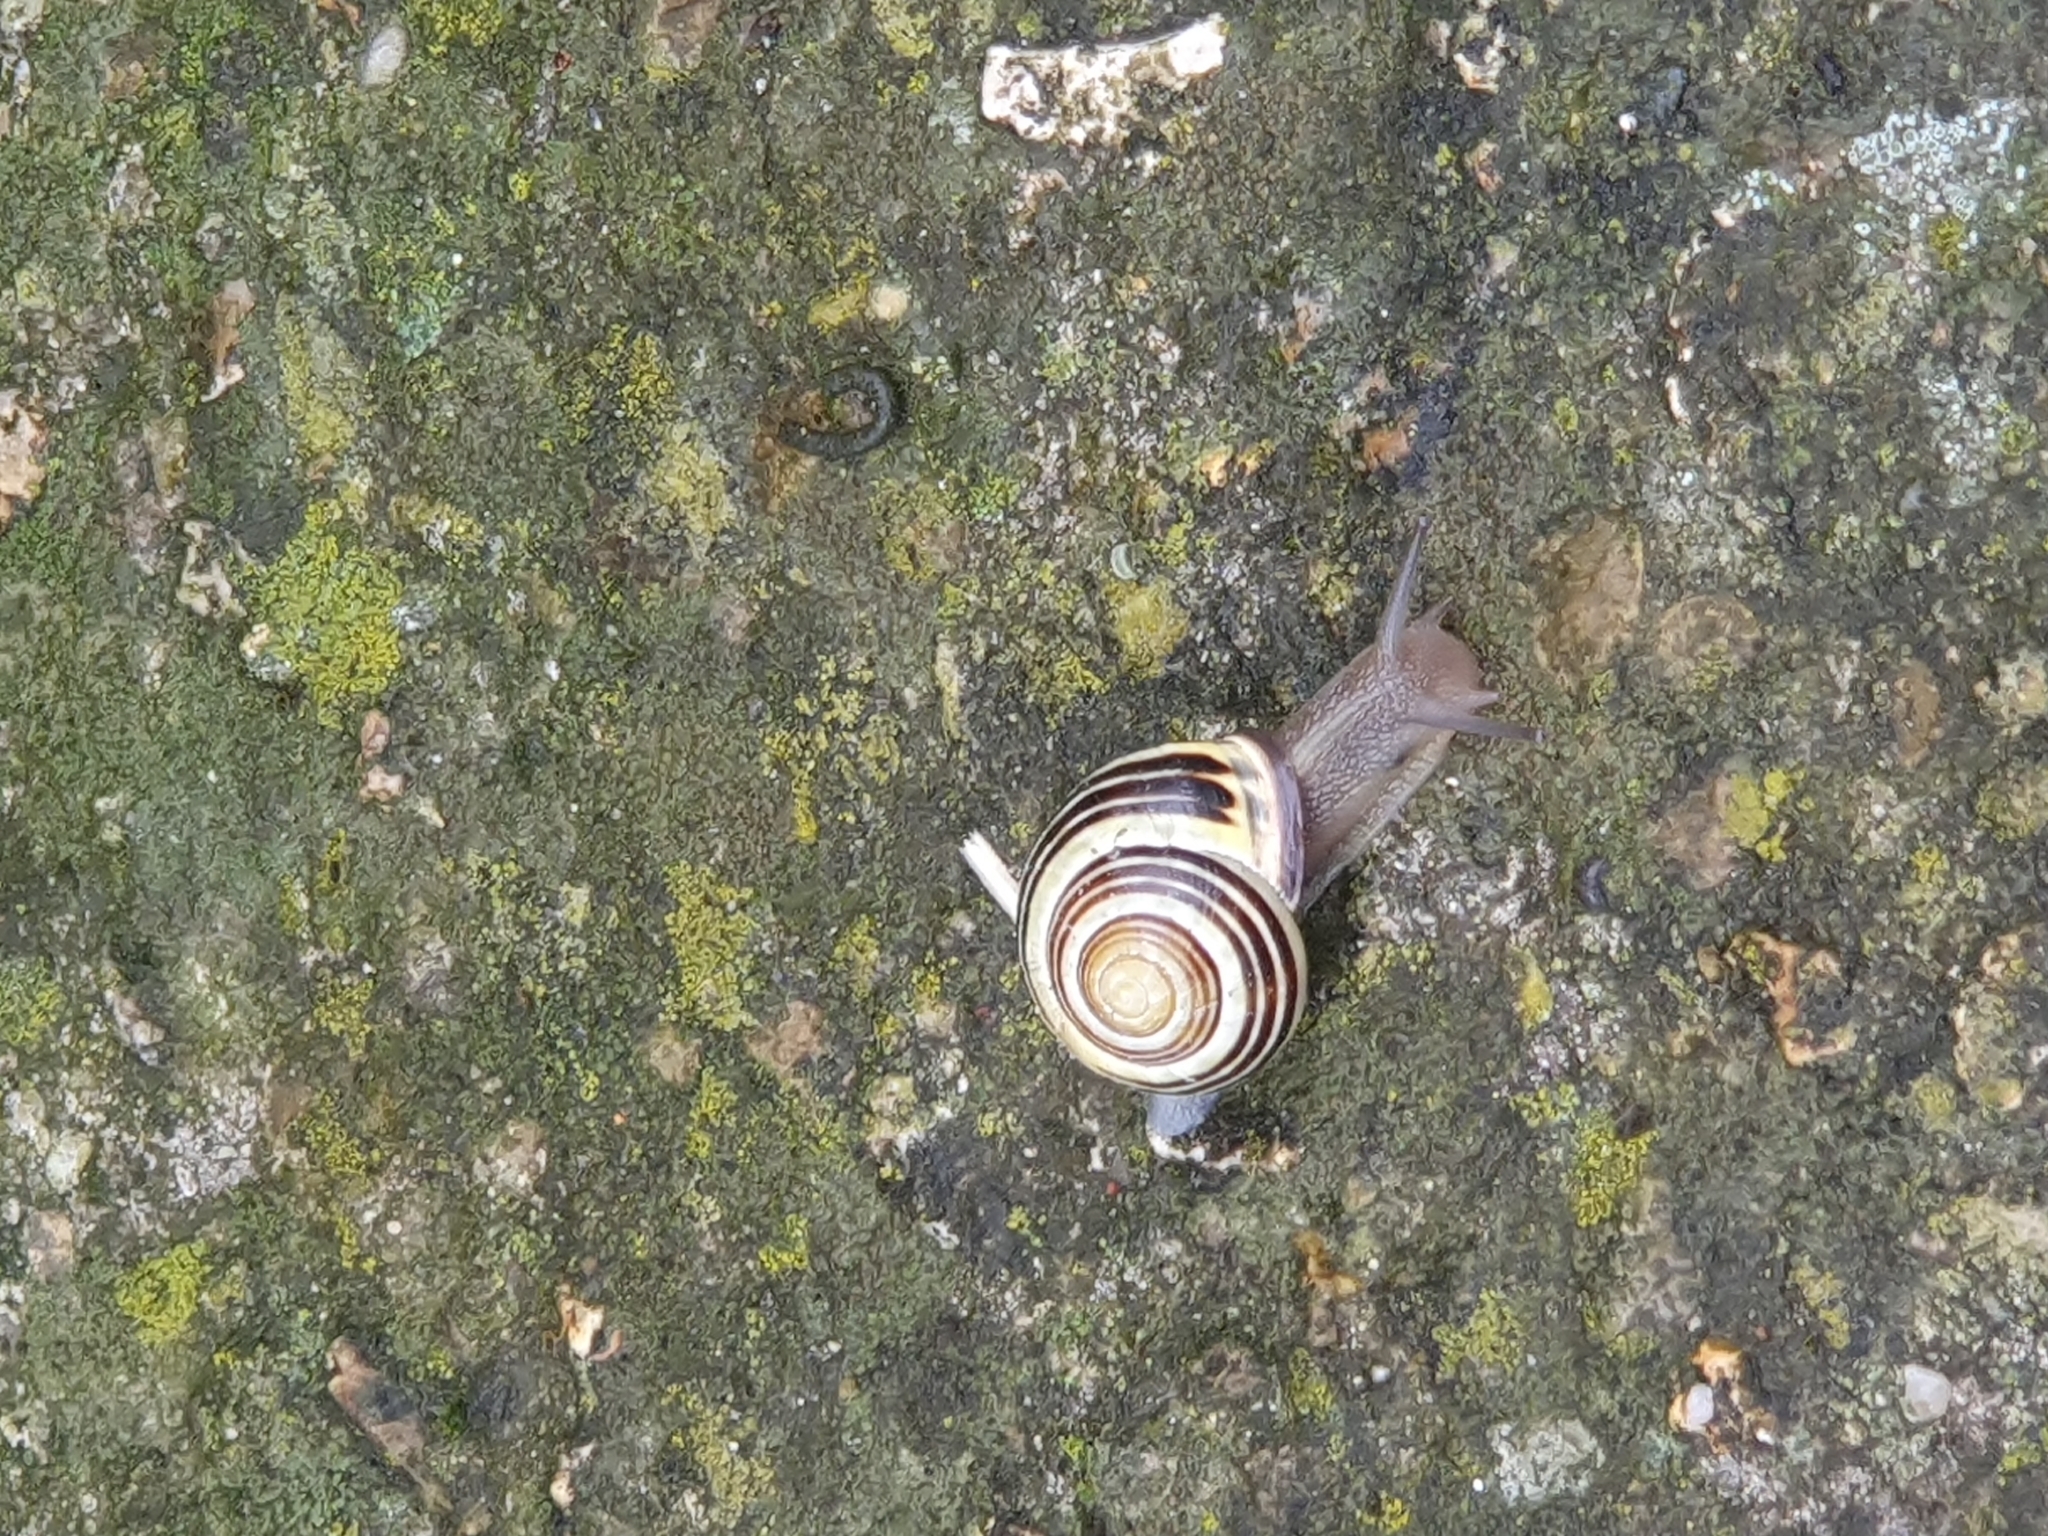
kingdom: Animalia
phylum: Mollusca
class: Gastropoda
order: Stylommatophora
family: Helicidae
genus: Cepaea
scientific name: Cepaea nemoralis
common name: Grovesnail
